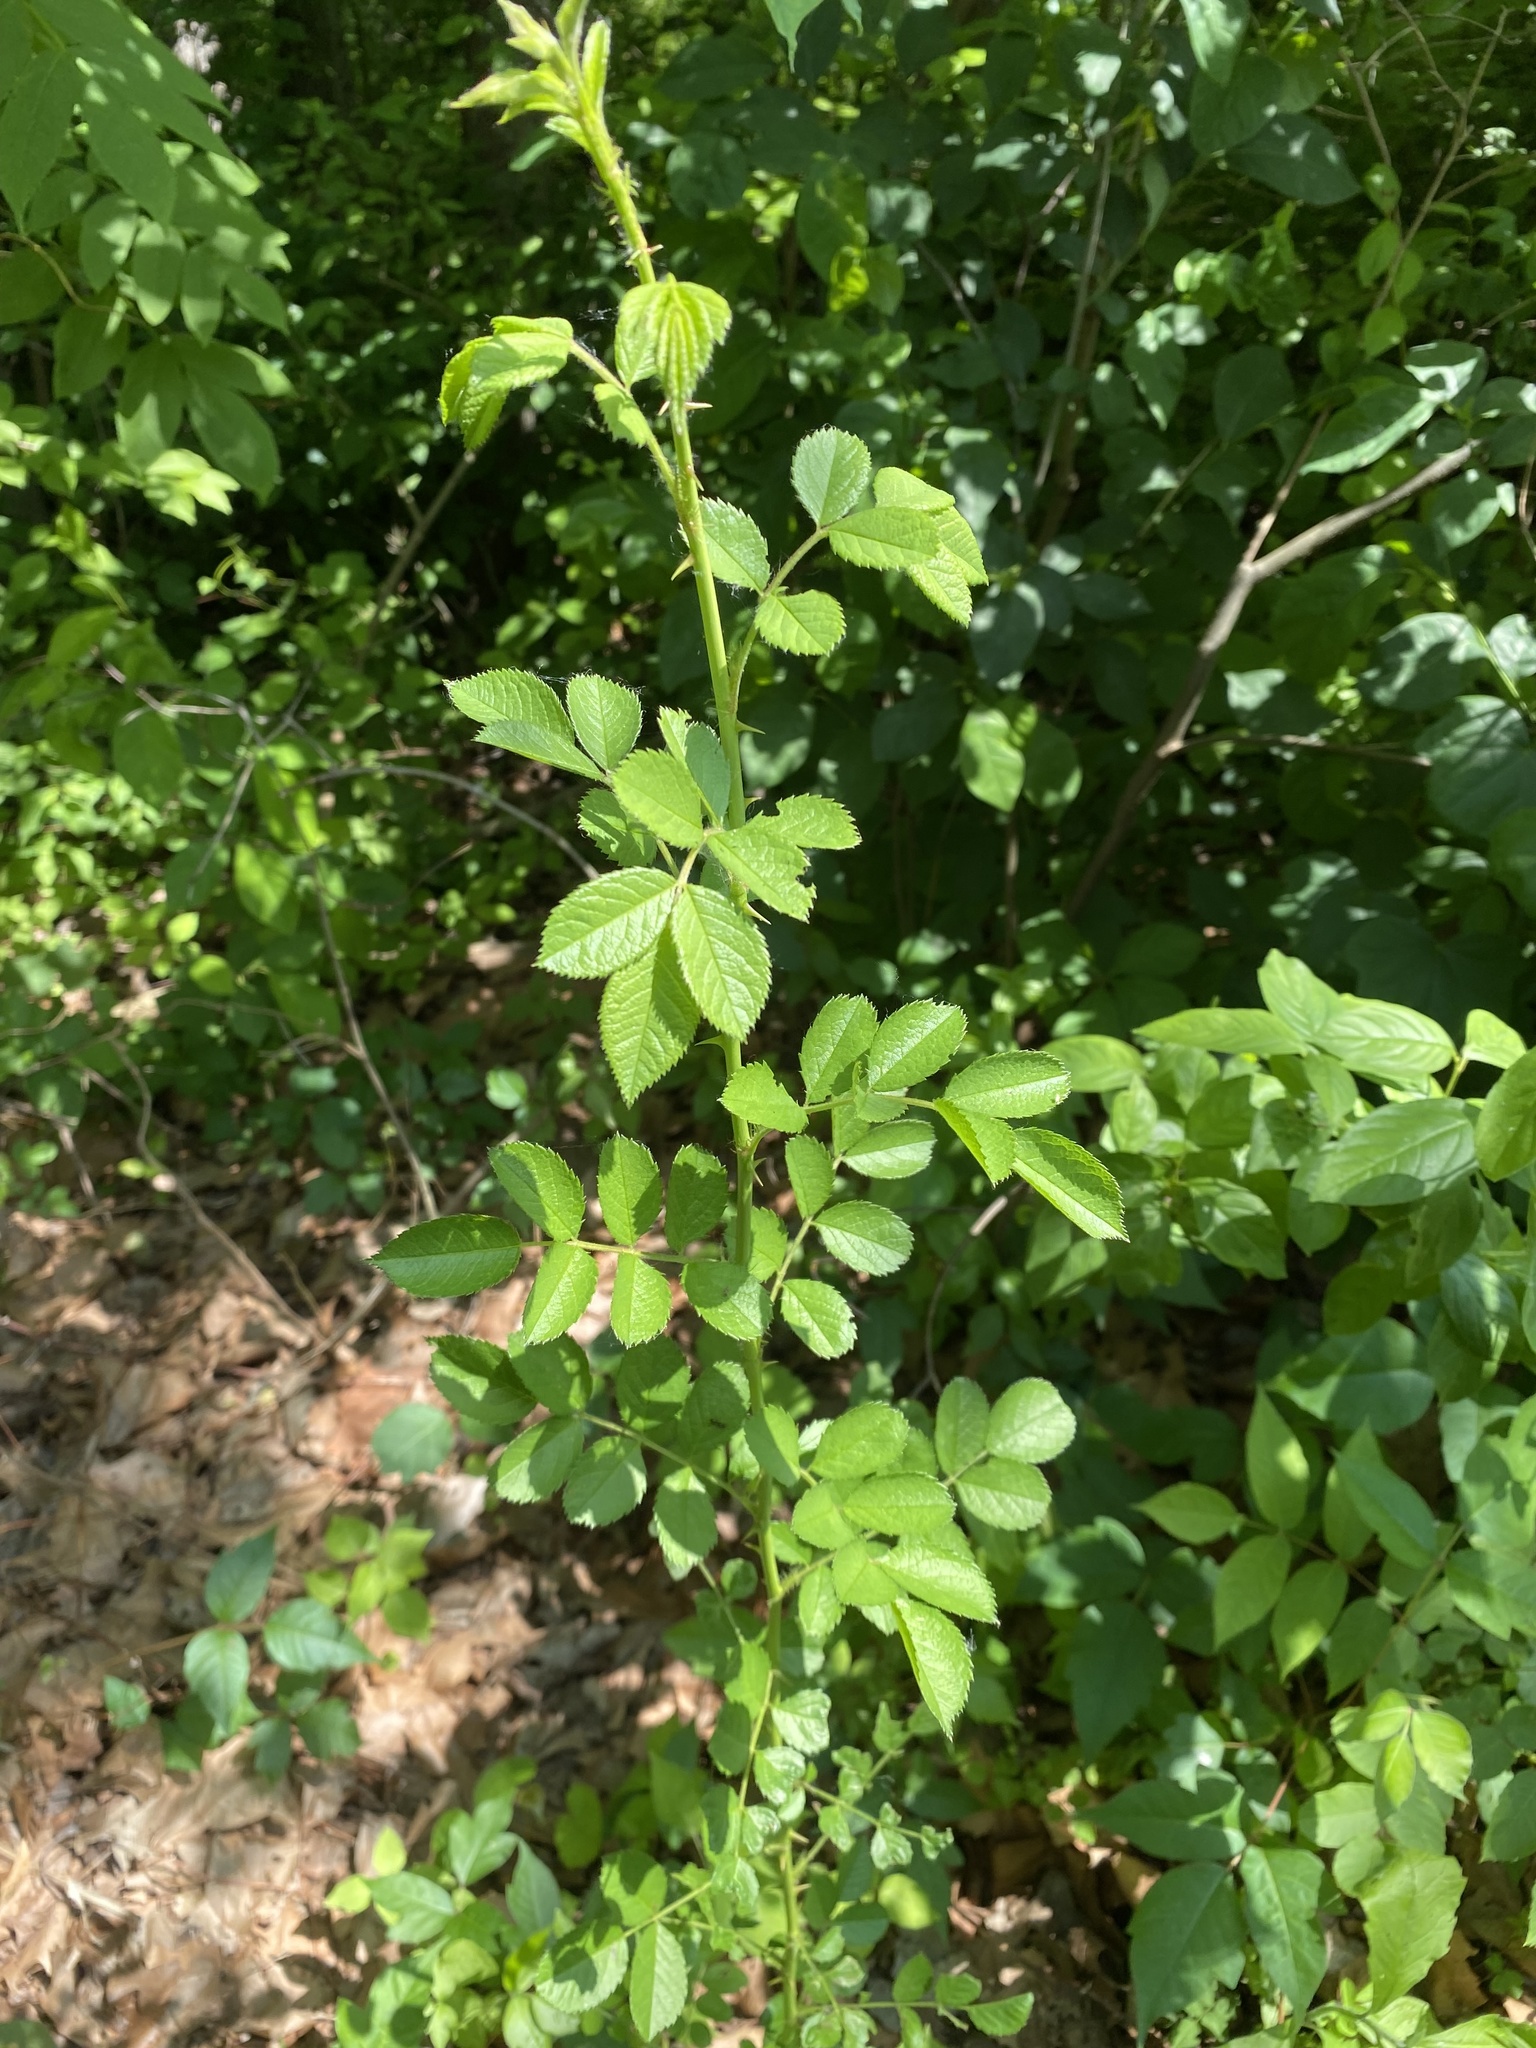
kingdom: Plantae
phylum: Tracheophyta
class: Magnoliopsida
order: Rosales
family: Rosaceae
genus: Rosa
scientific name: Rosa multiflora
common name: Multiflora rose
